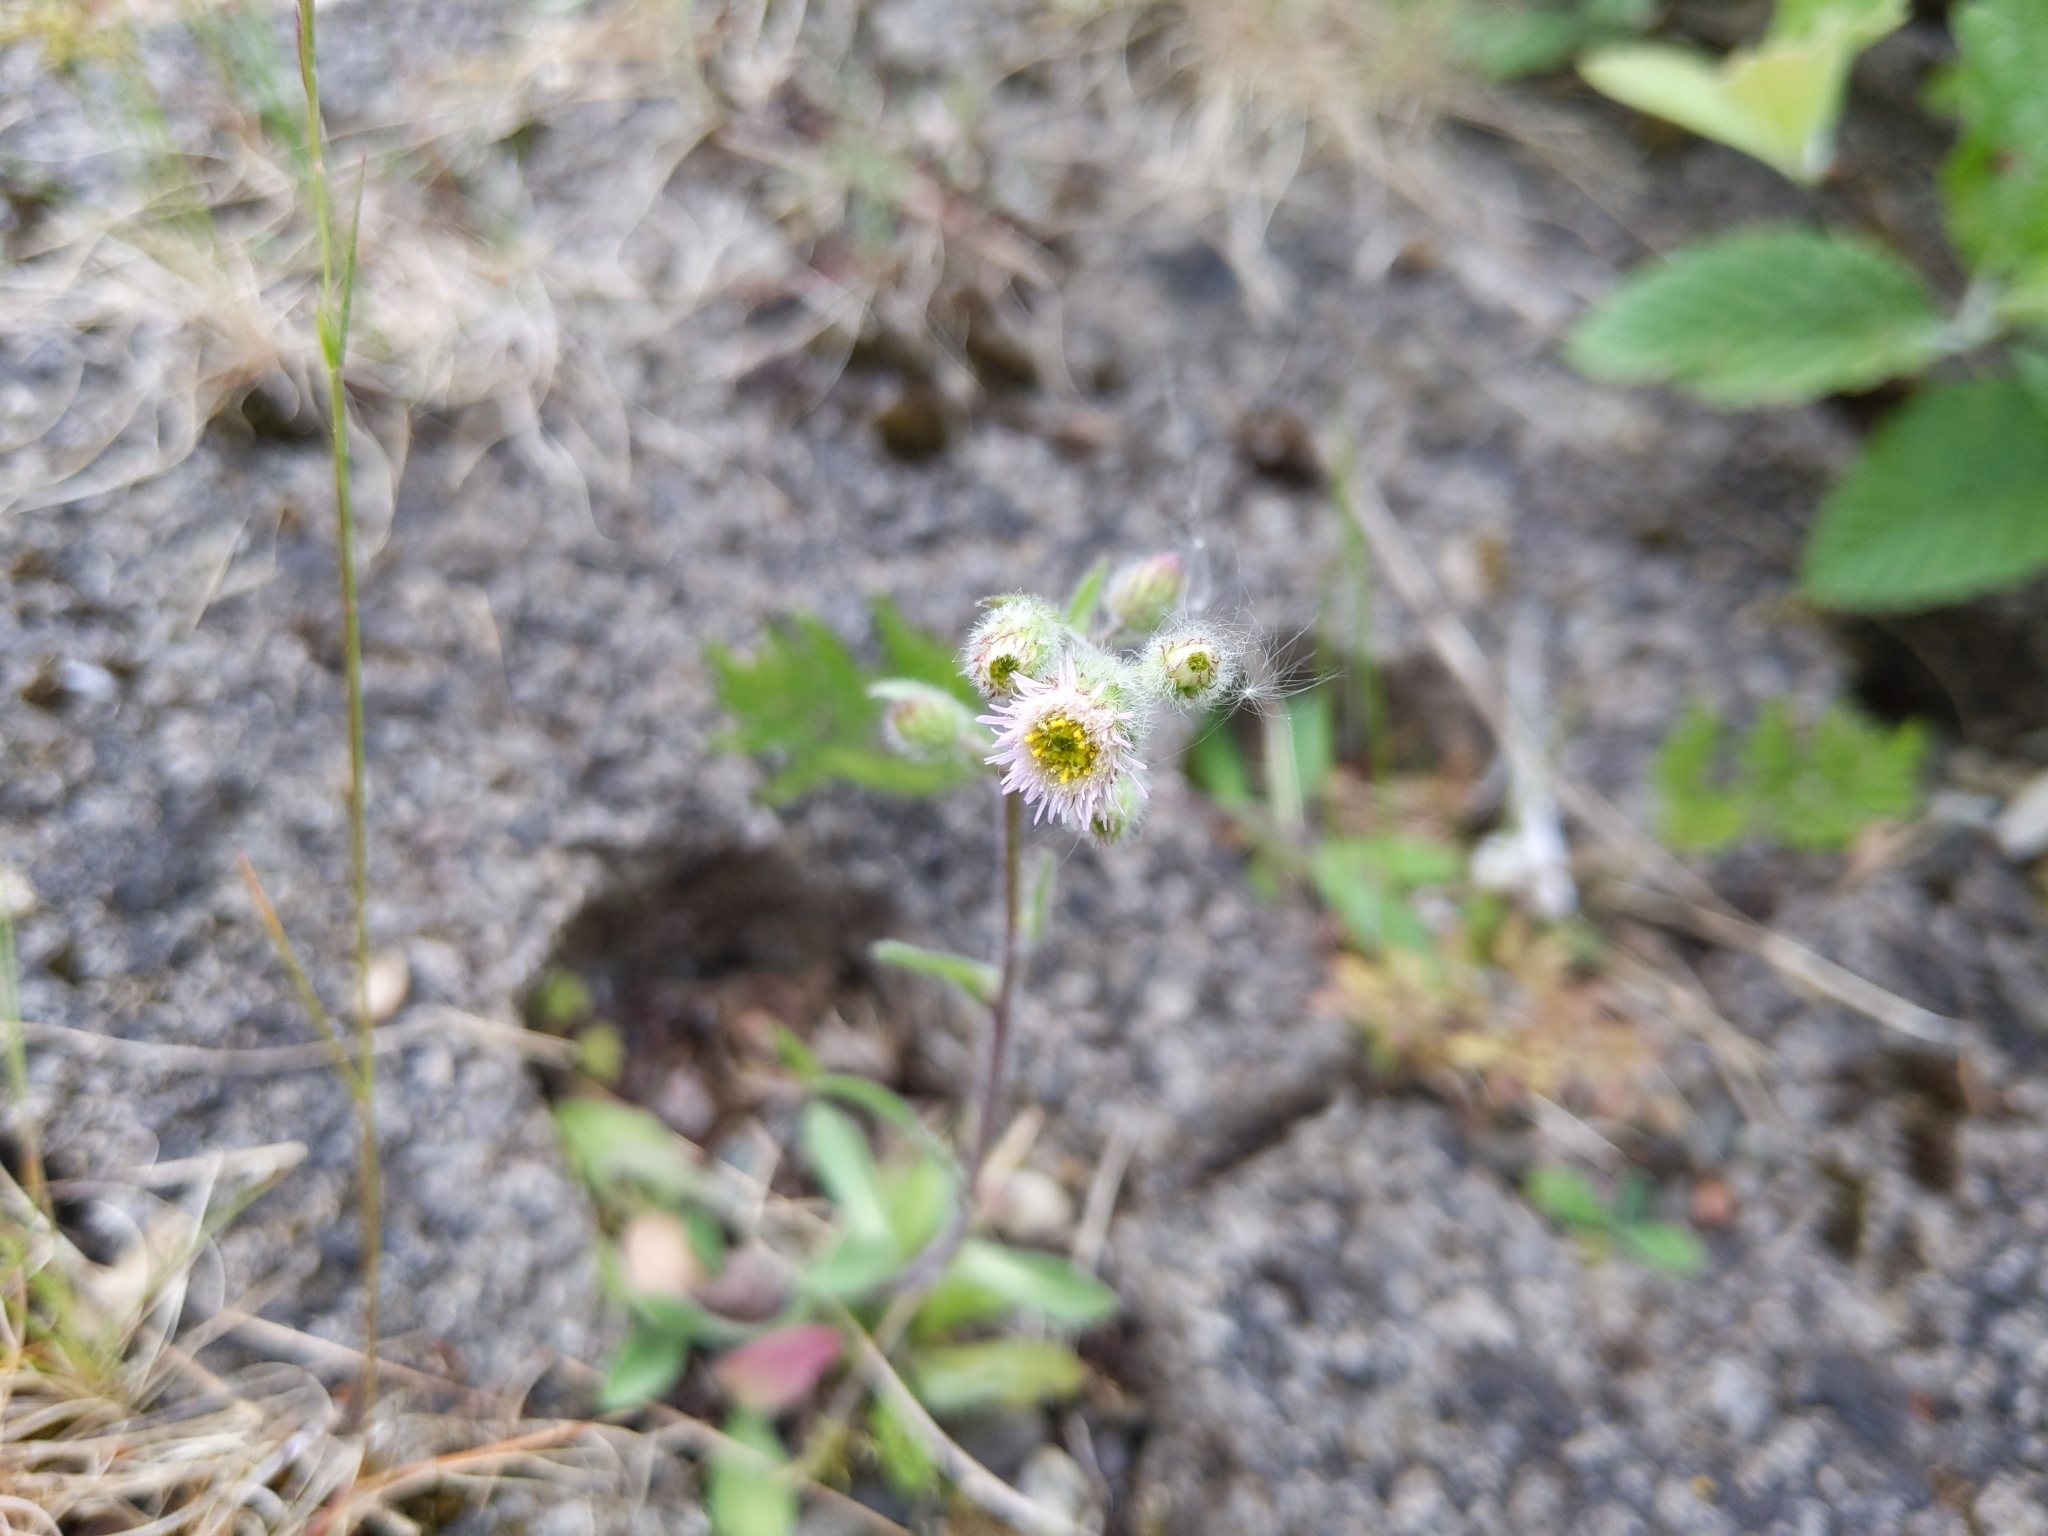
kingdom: Plantae
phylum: Tracheophyta
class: Magnoliopsida
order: Asterales
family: Asteraceae
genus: Erigeron
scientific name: Erigeron acris
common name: Blue fleabane
